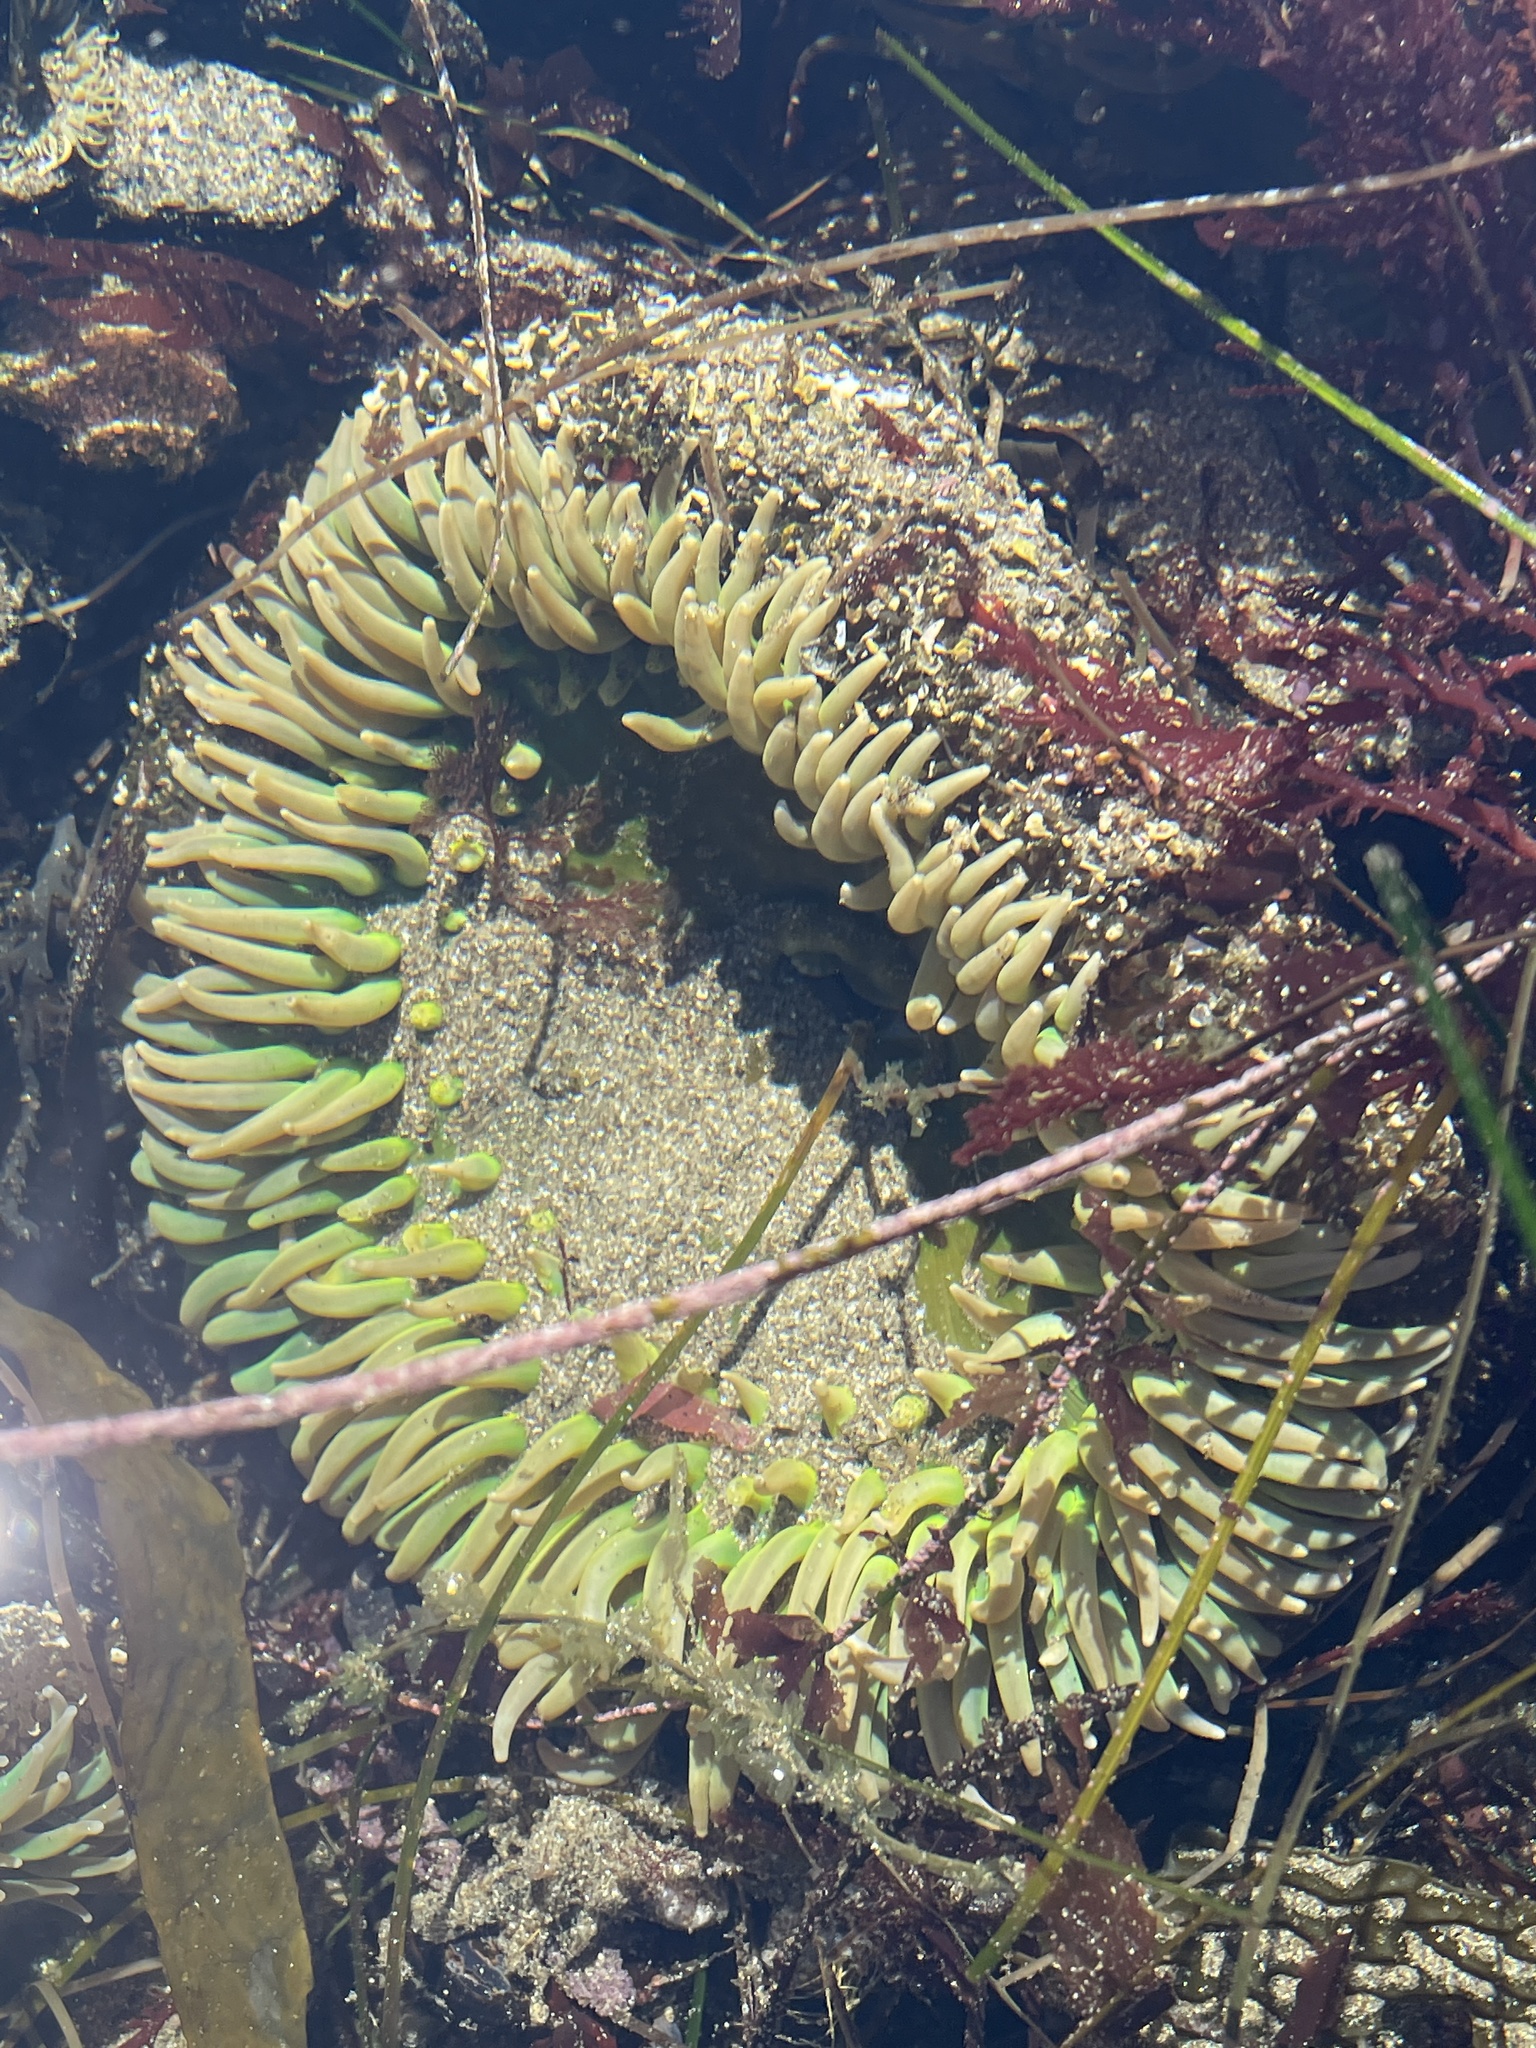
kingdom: Animalia
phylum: Cnidaria
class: Anthozoa
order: Actiniaria
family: Actiniidae
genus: Anthopleura
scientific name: Anthopleura xanthogrammica
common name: Giant green anemone
